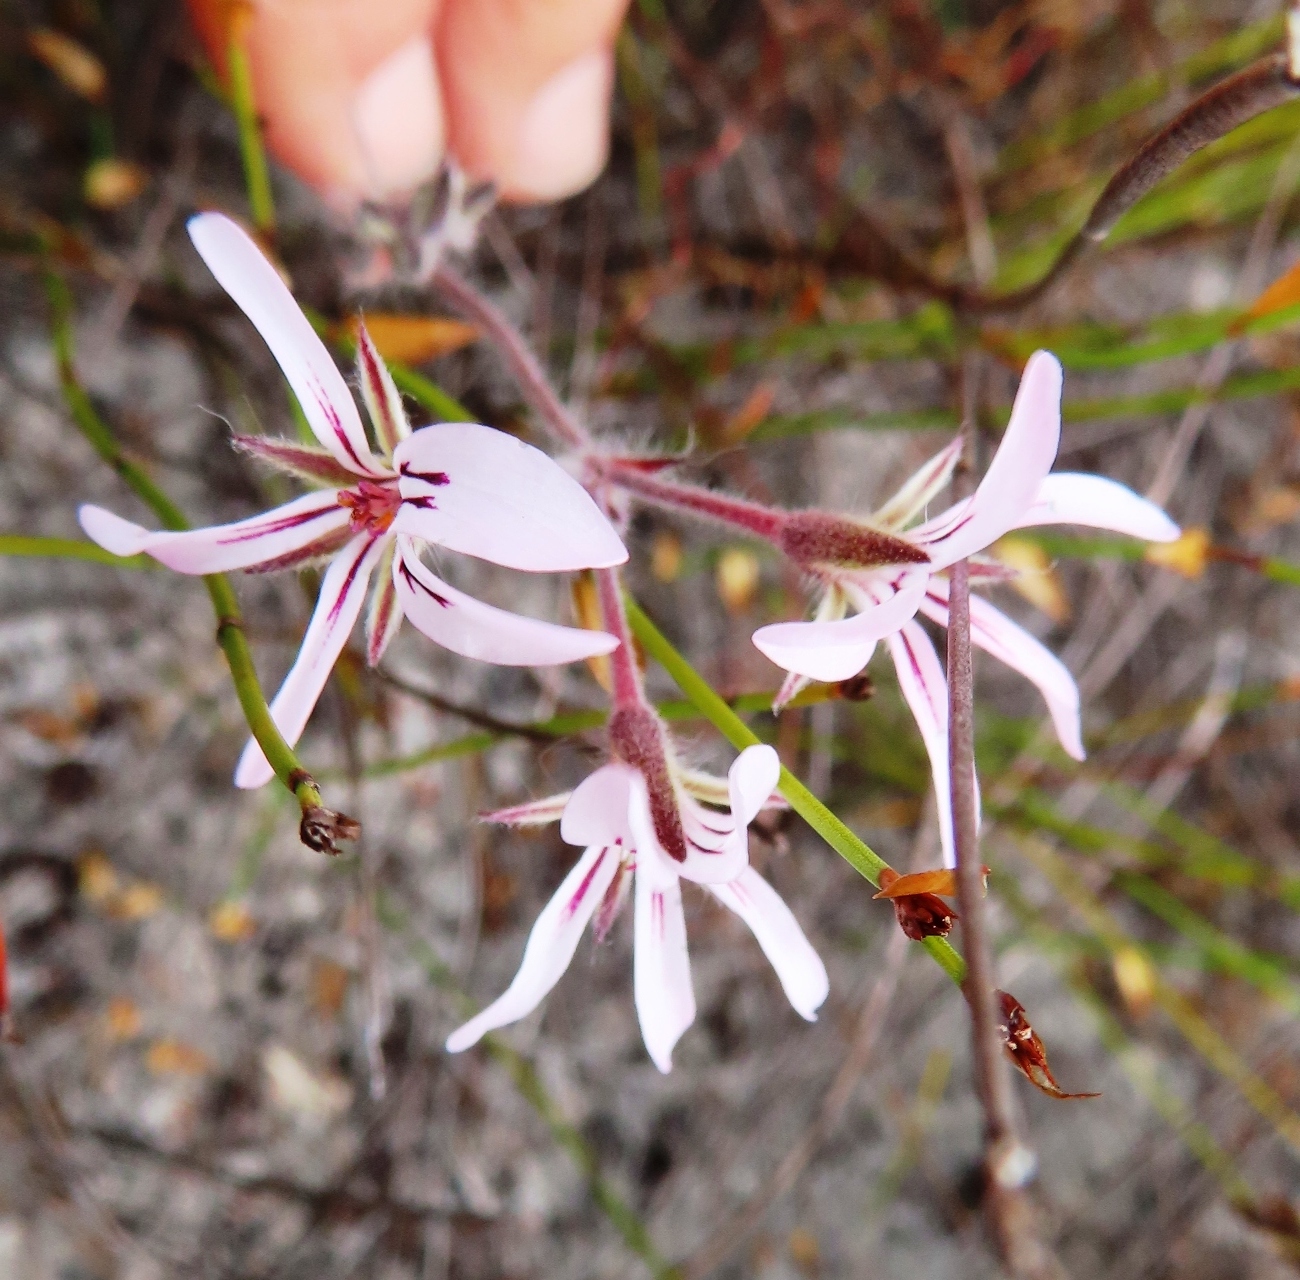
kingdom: Plantae
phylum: Tracheophyta
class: Magnoliopsida
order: Geraniales
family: Geraniaceae
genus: Pelargonium
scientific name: Pelargonium proliferum
